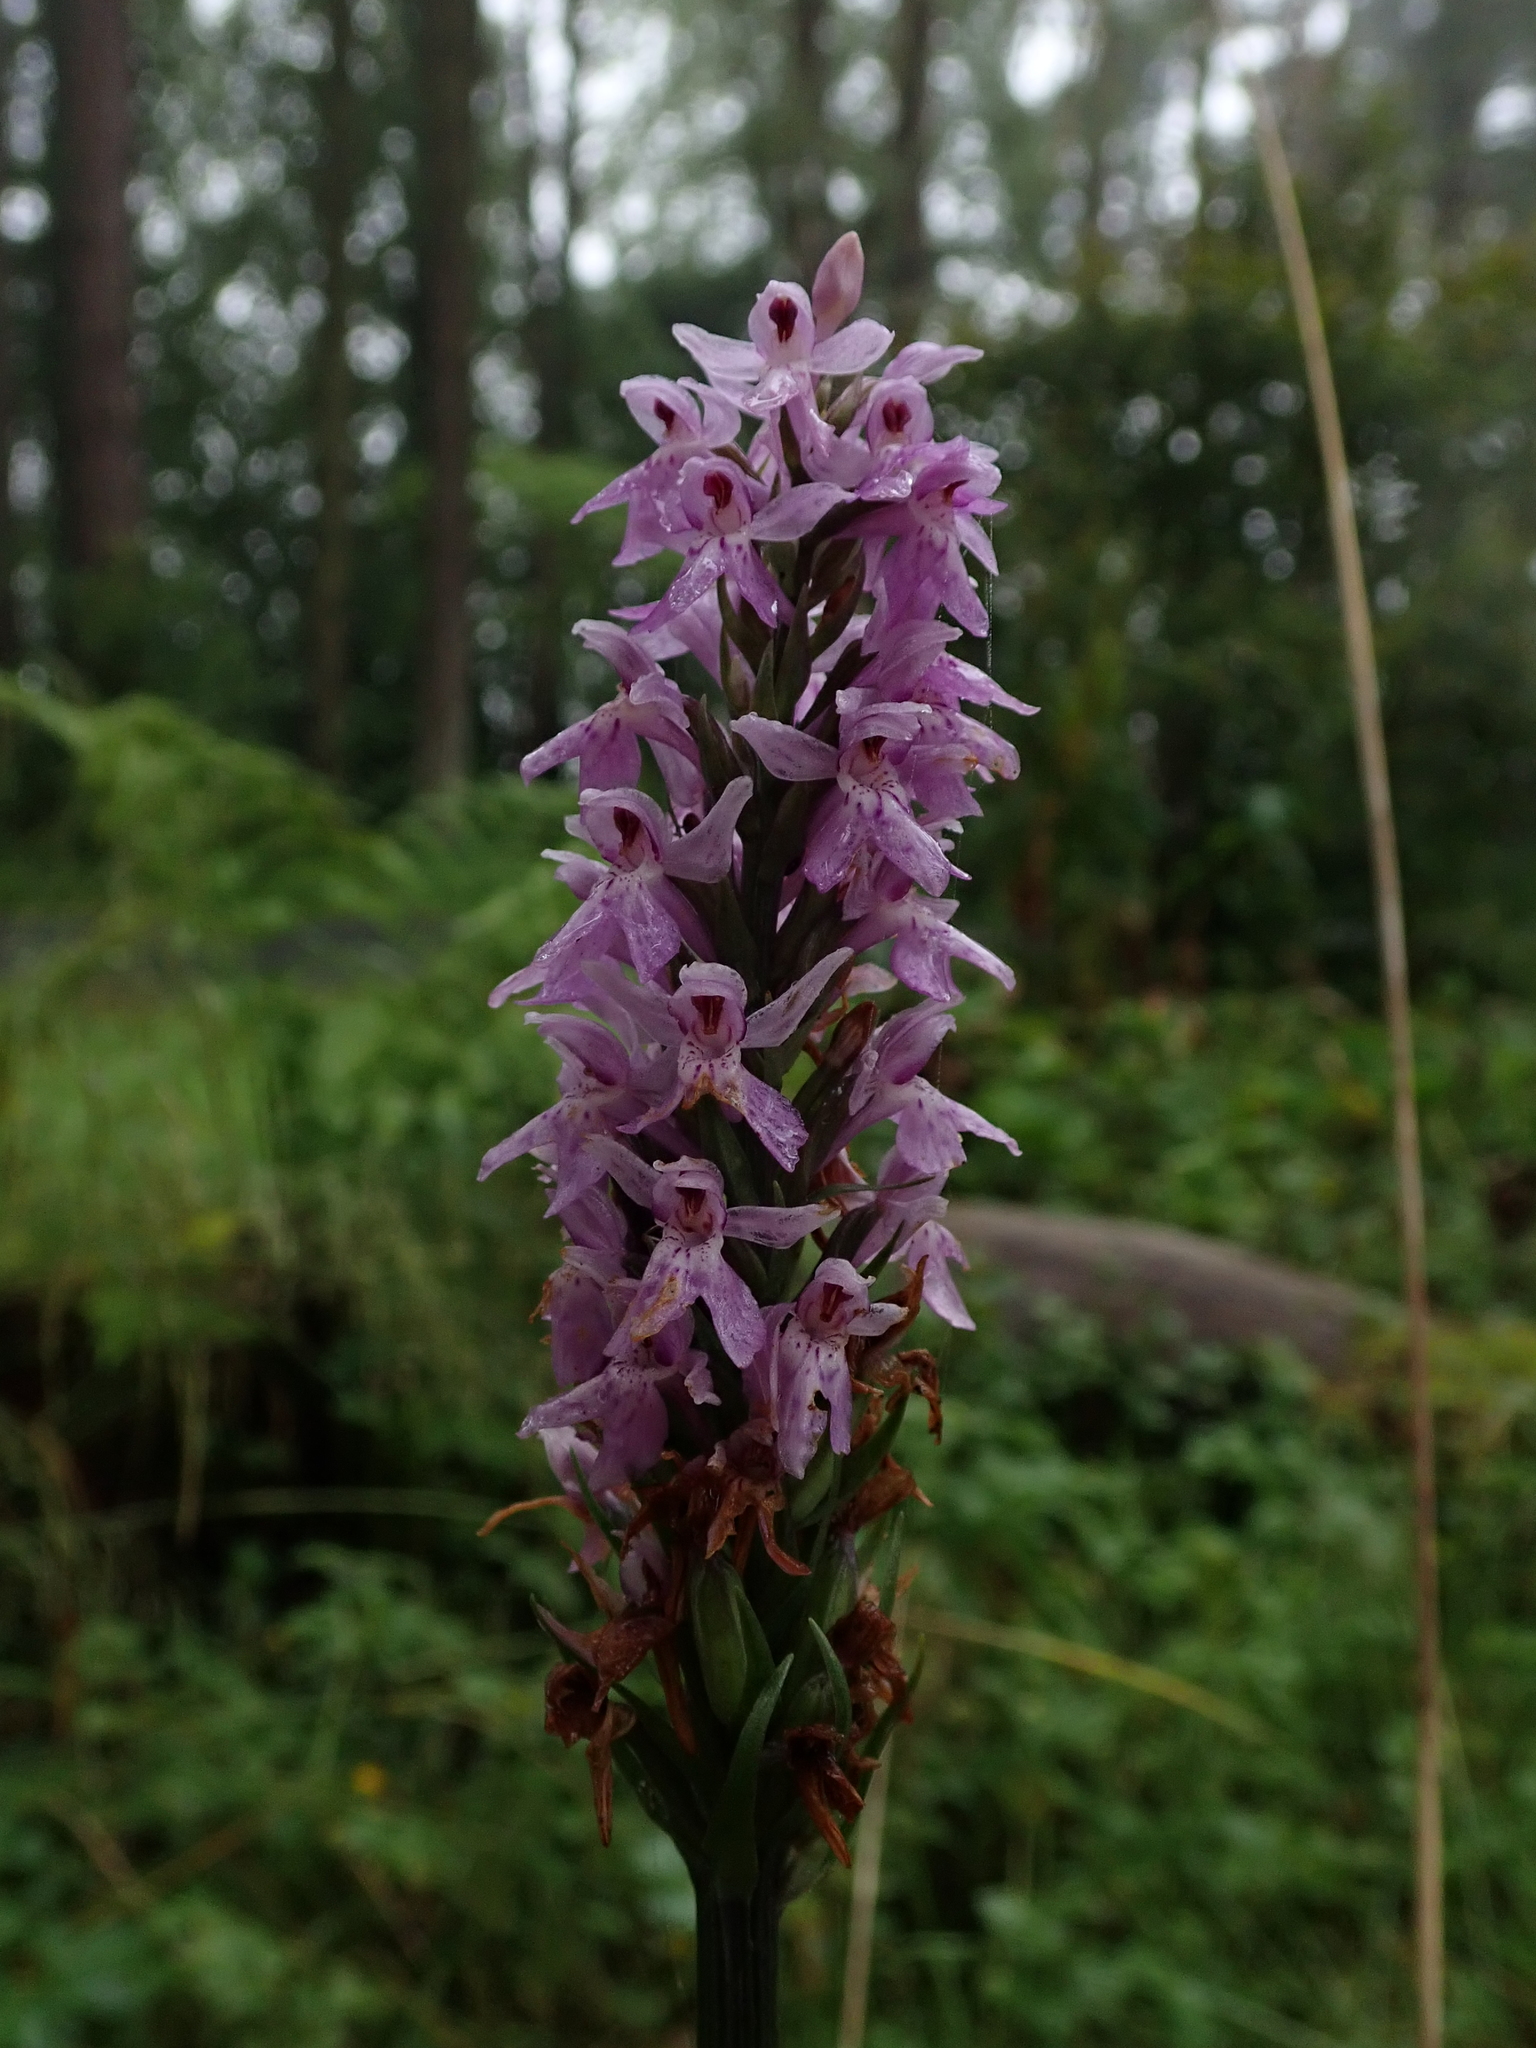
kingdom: Plantae
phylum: Tracheophyta
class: Liliopsida
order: Asparagales
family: Orchidaceae
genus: Dactylorhiza
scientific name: Dactylorhiza maculata
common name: Heath spotted-orchid
